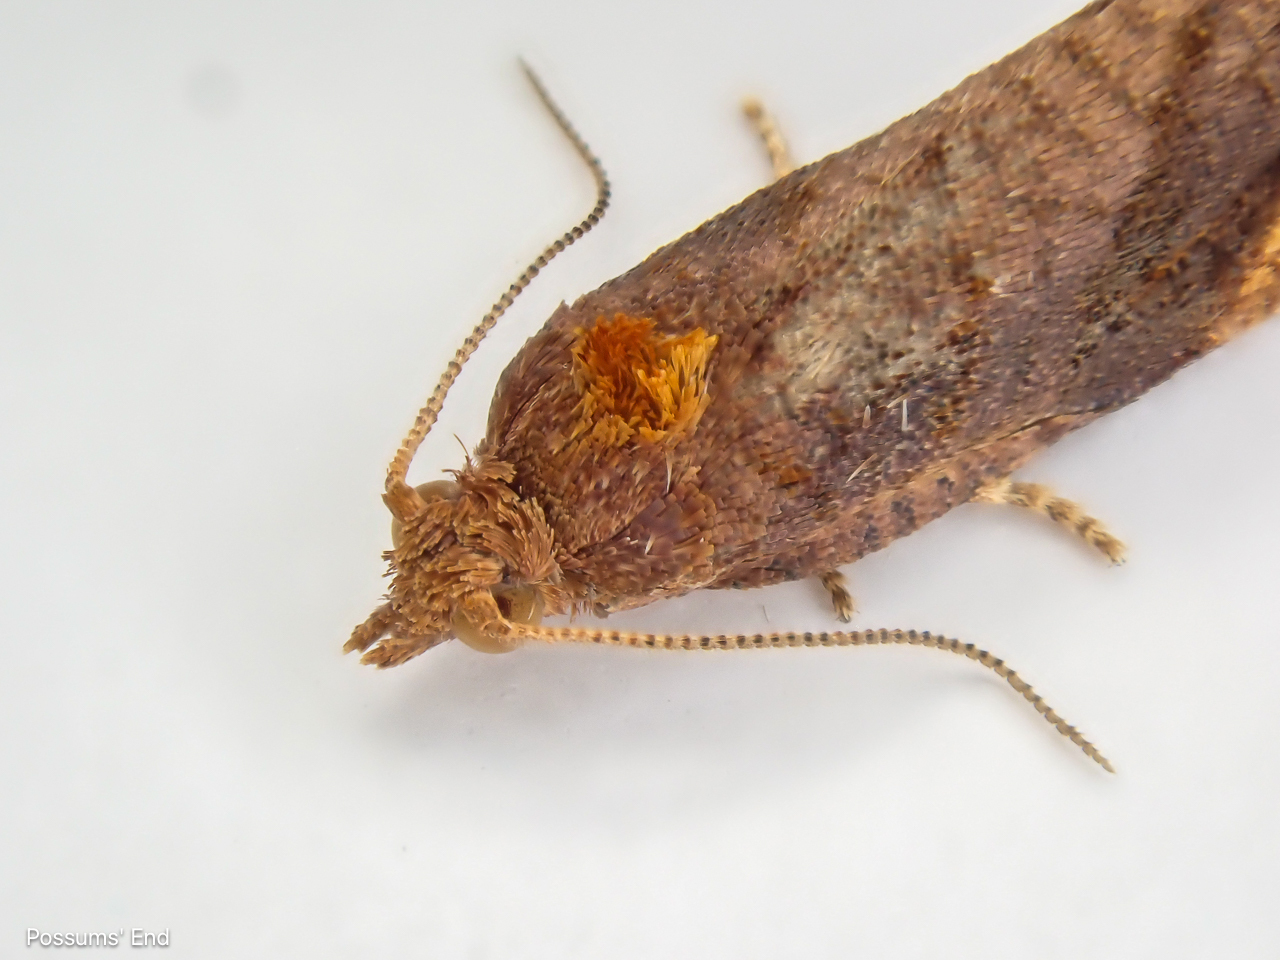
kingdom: Animalia
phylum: Arthropoda
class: Insecta
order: Lepidoptera
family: Tortricidae
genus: Pyrgotis
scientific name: Pyrgotis eudorana
